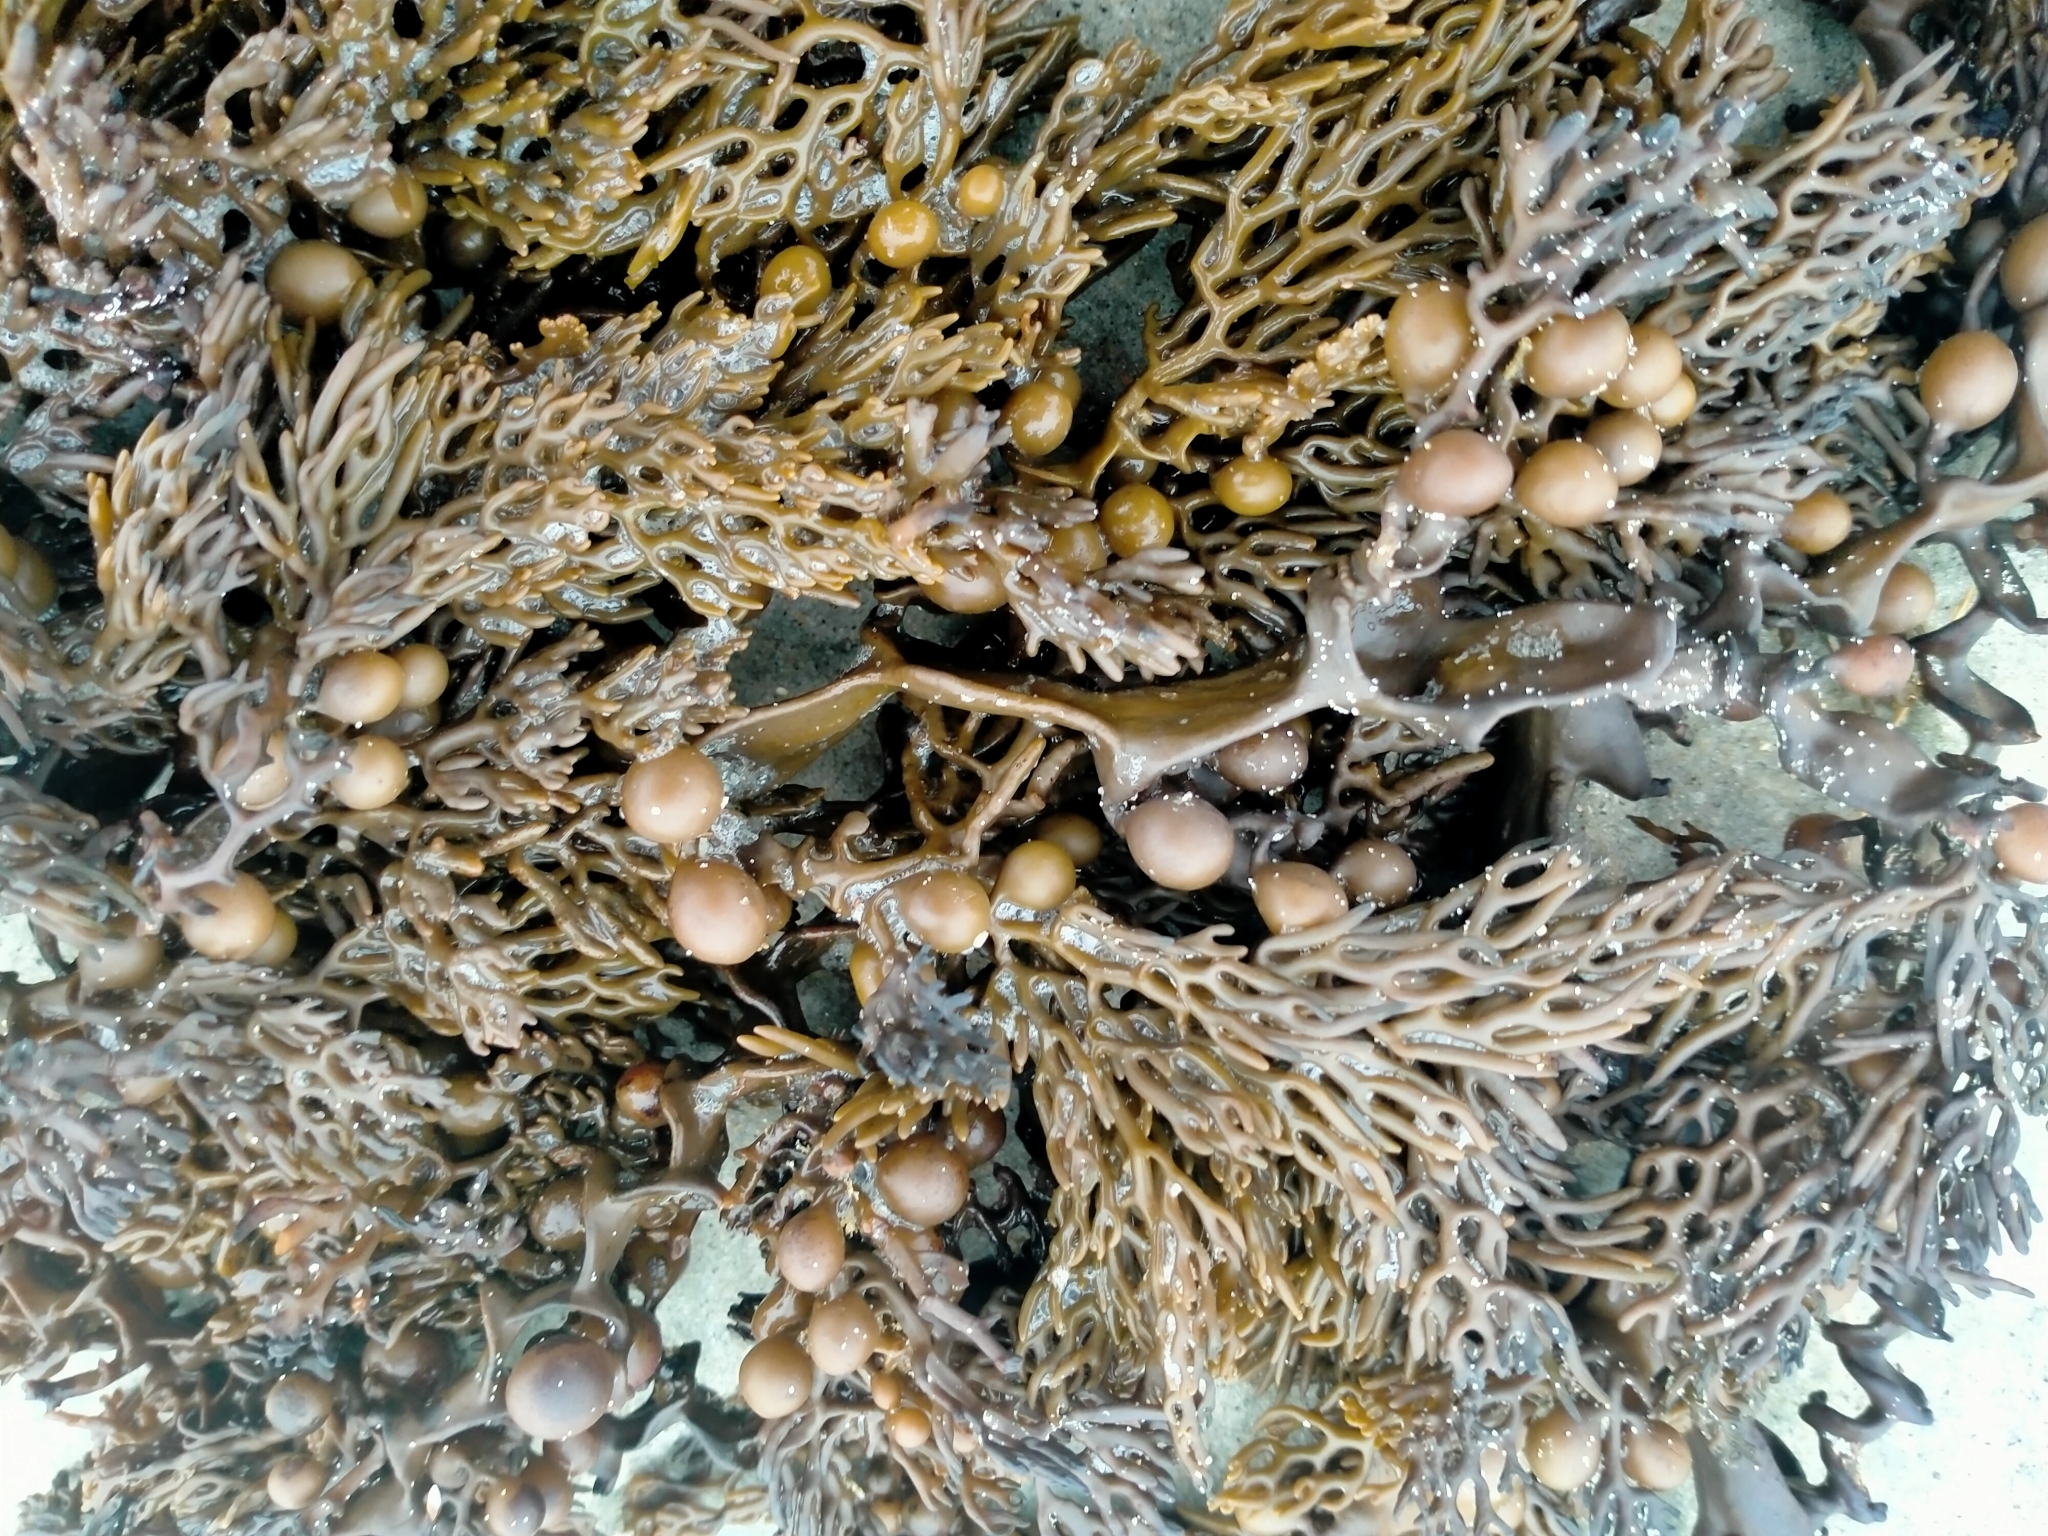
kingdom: Chromista
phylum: Ochrophyta
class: Phaeophyceae
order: Fucales
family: Sargassaceae
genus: Cystophora
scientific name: Cystophora scalaris
